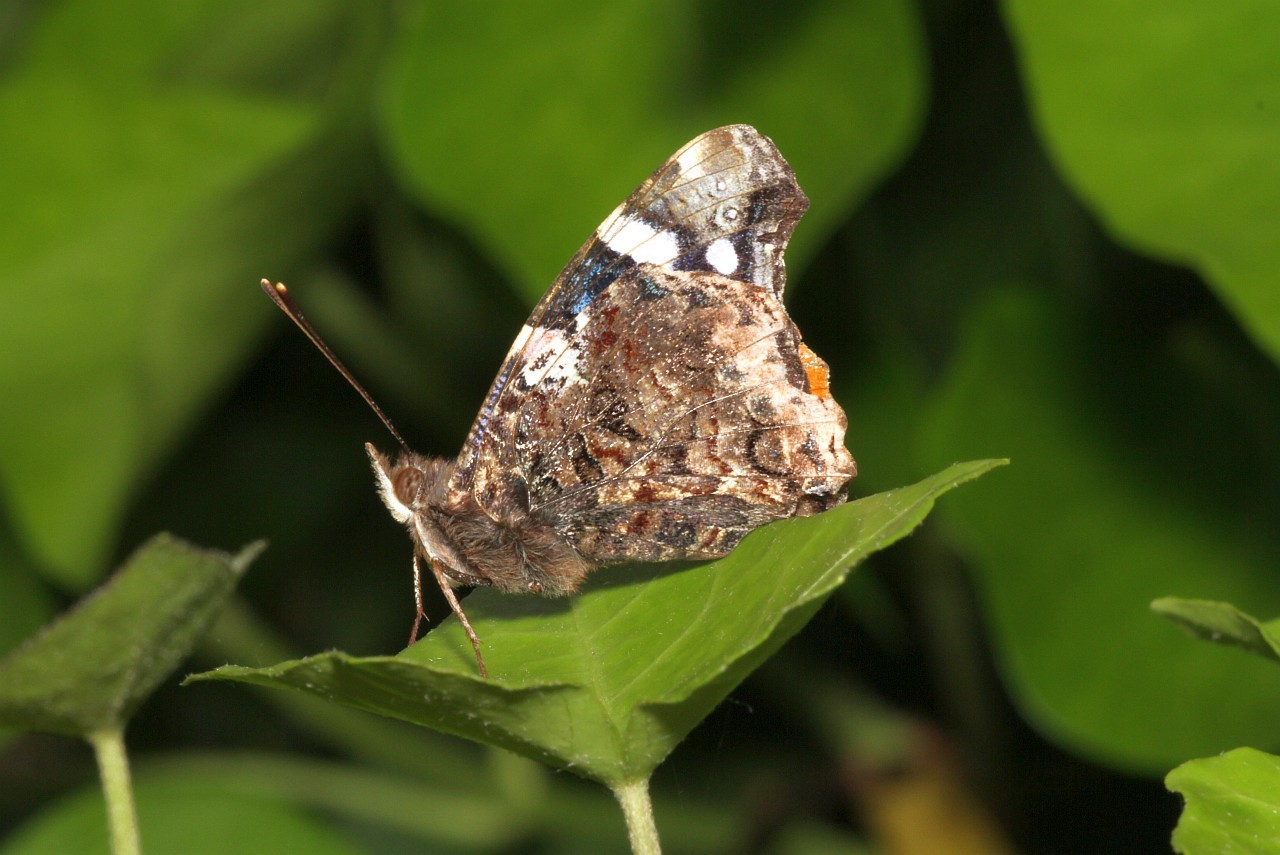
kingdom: Animalia
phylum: Arthropoda
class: Insecta
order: Lepidoptera
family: Nymphalidae
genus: Vanessa
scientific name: Vanessa atalanta
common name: Red admiral
